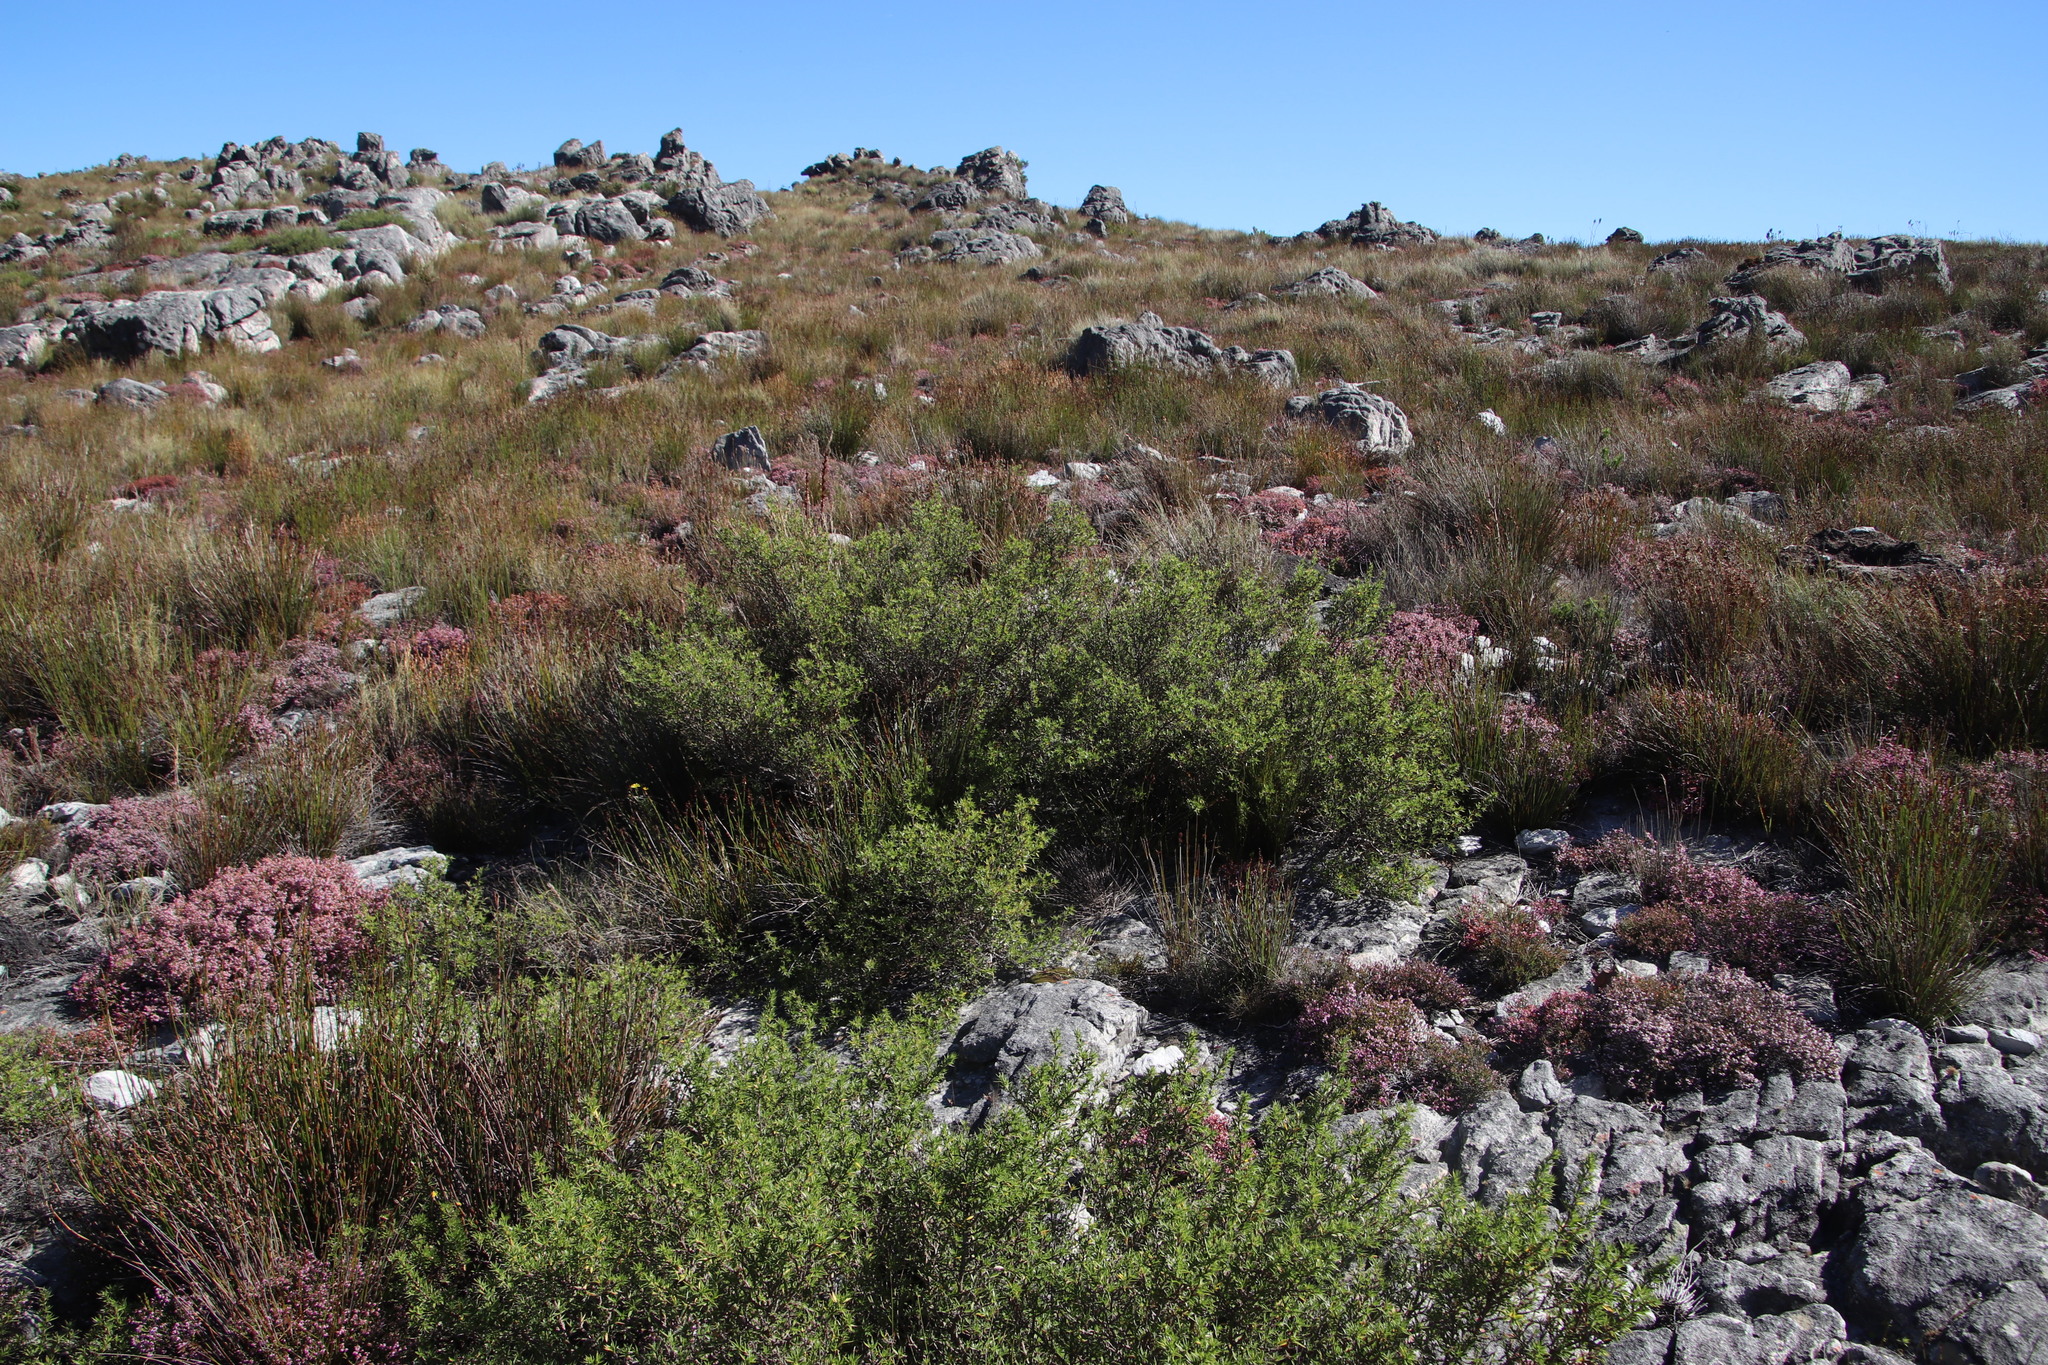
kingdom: Plantae
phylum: Tracheophyta
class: Magnoliopsida
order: Rosales
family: Rosaceae
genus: Cliffortia
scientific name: Cliffortia ruscifolia
